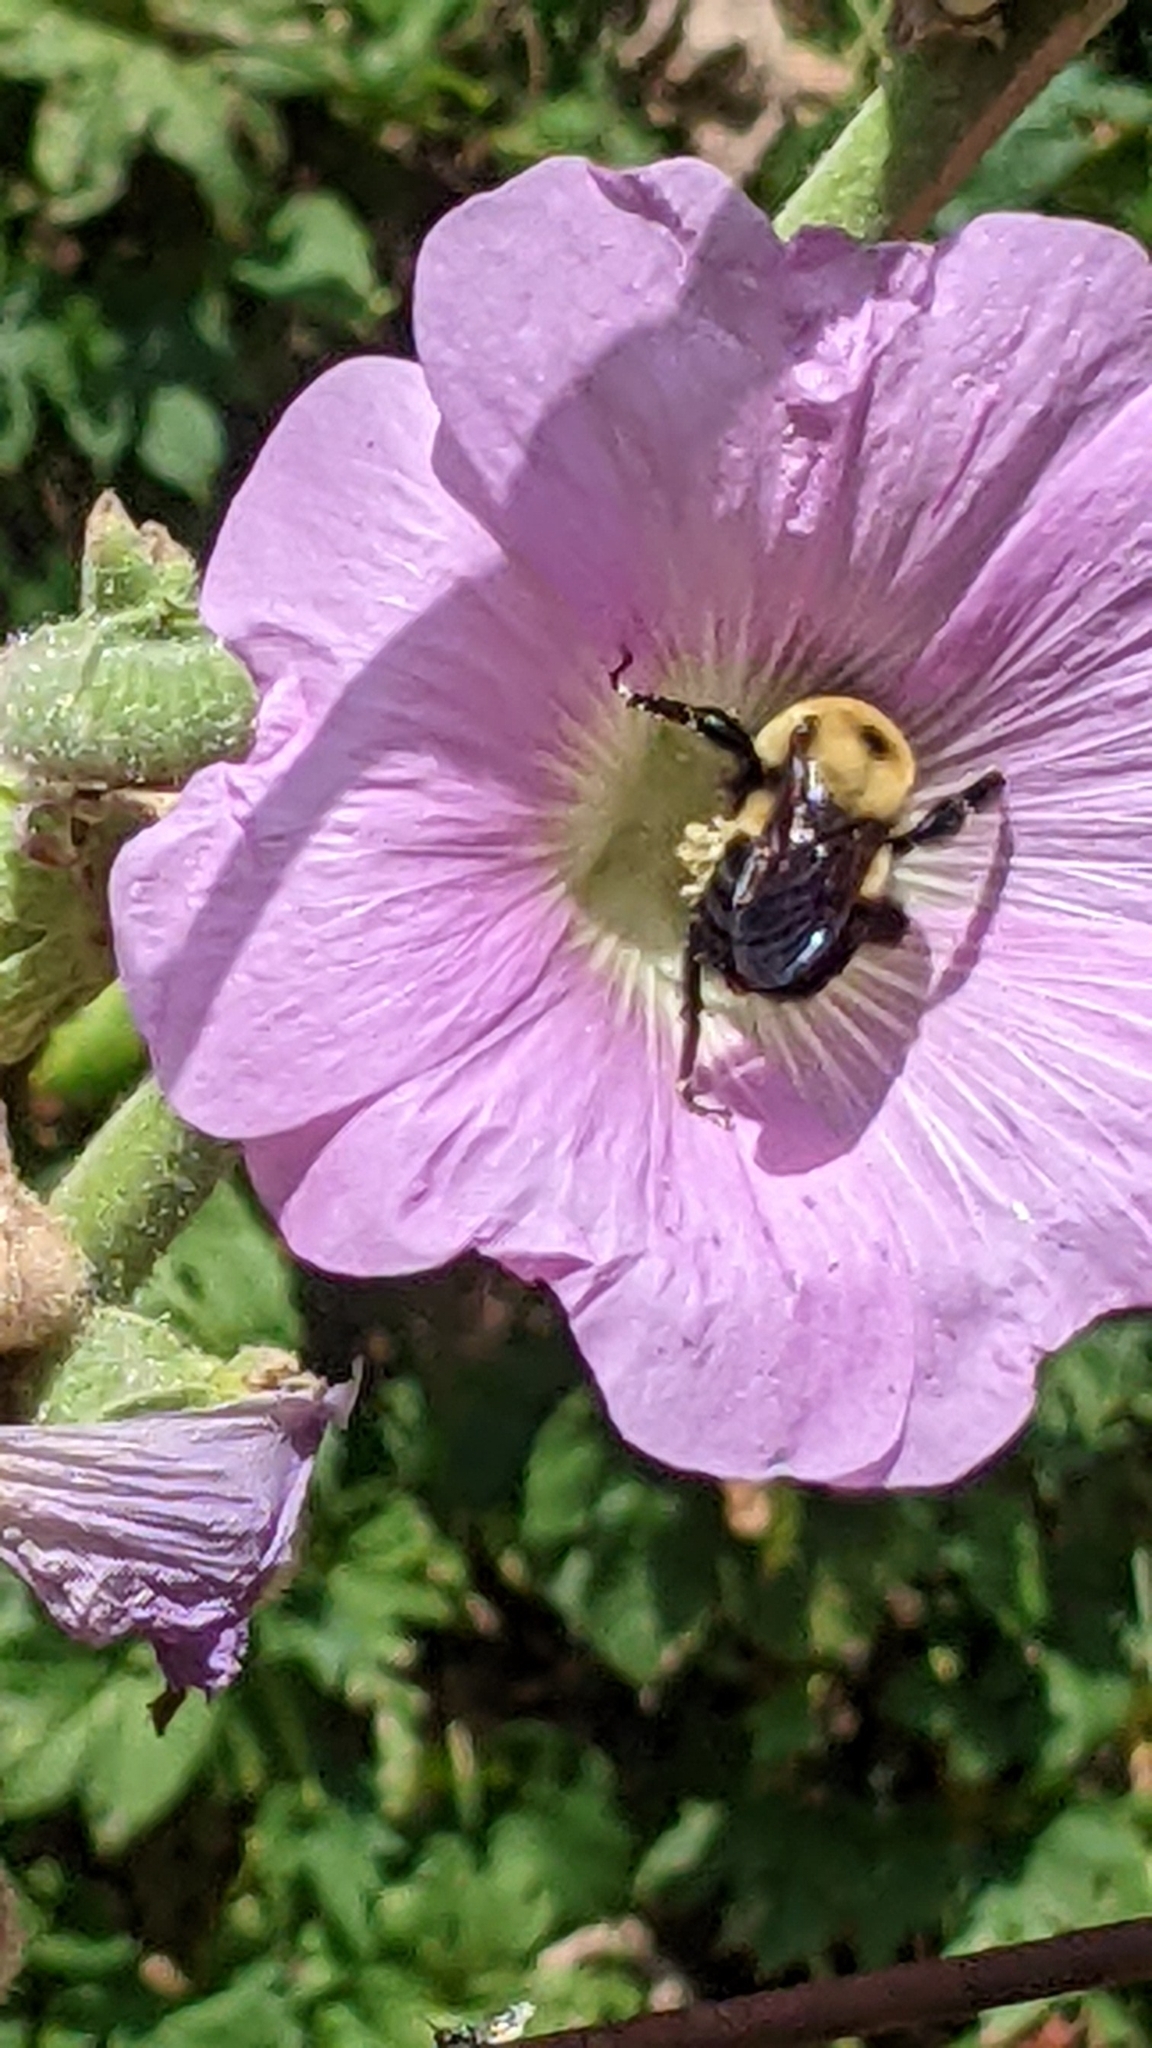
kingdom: Animalia
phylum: Arthropoda
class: Insecta
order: Hymenoptera
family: Apidae
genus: Bombus
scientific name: Bombus griseocollis
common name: Brown-belted bumble bee
